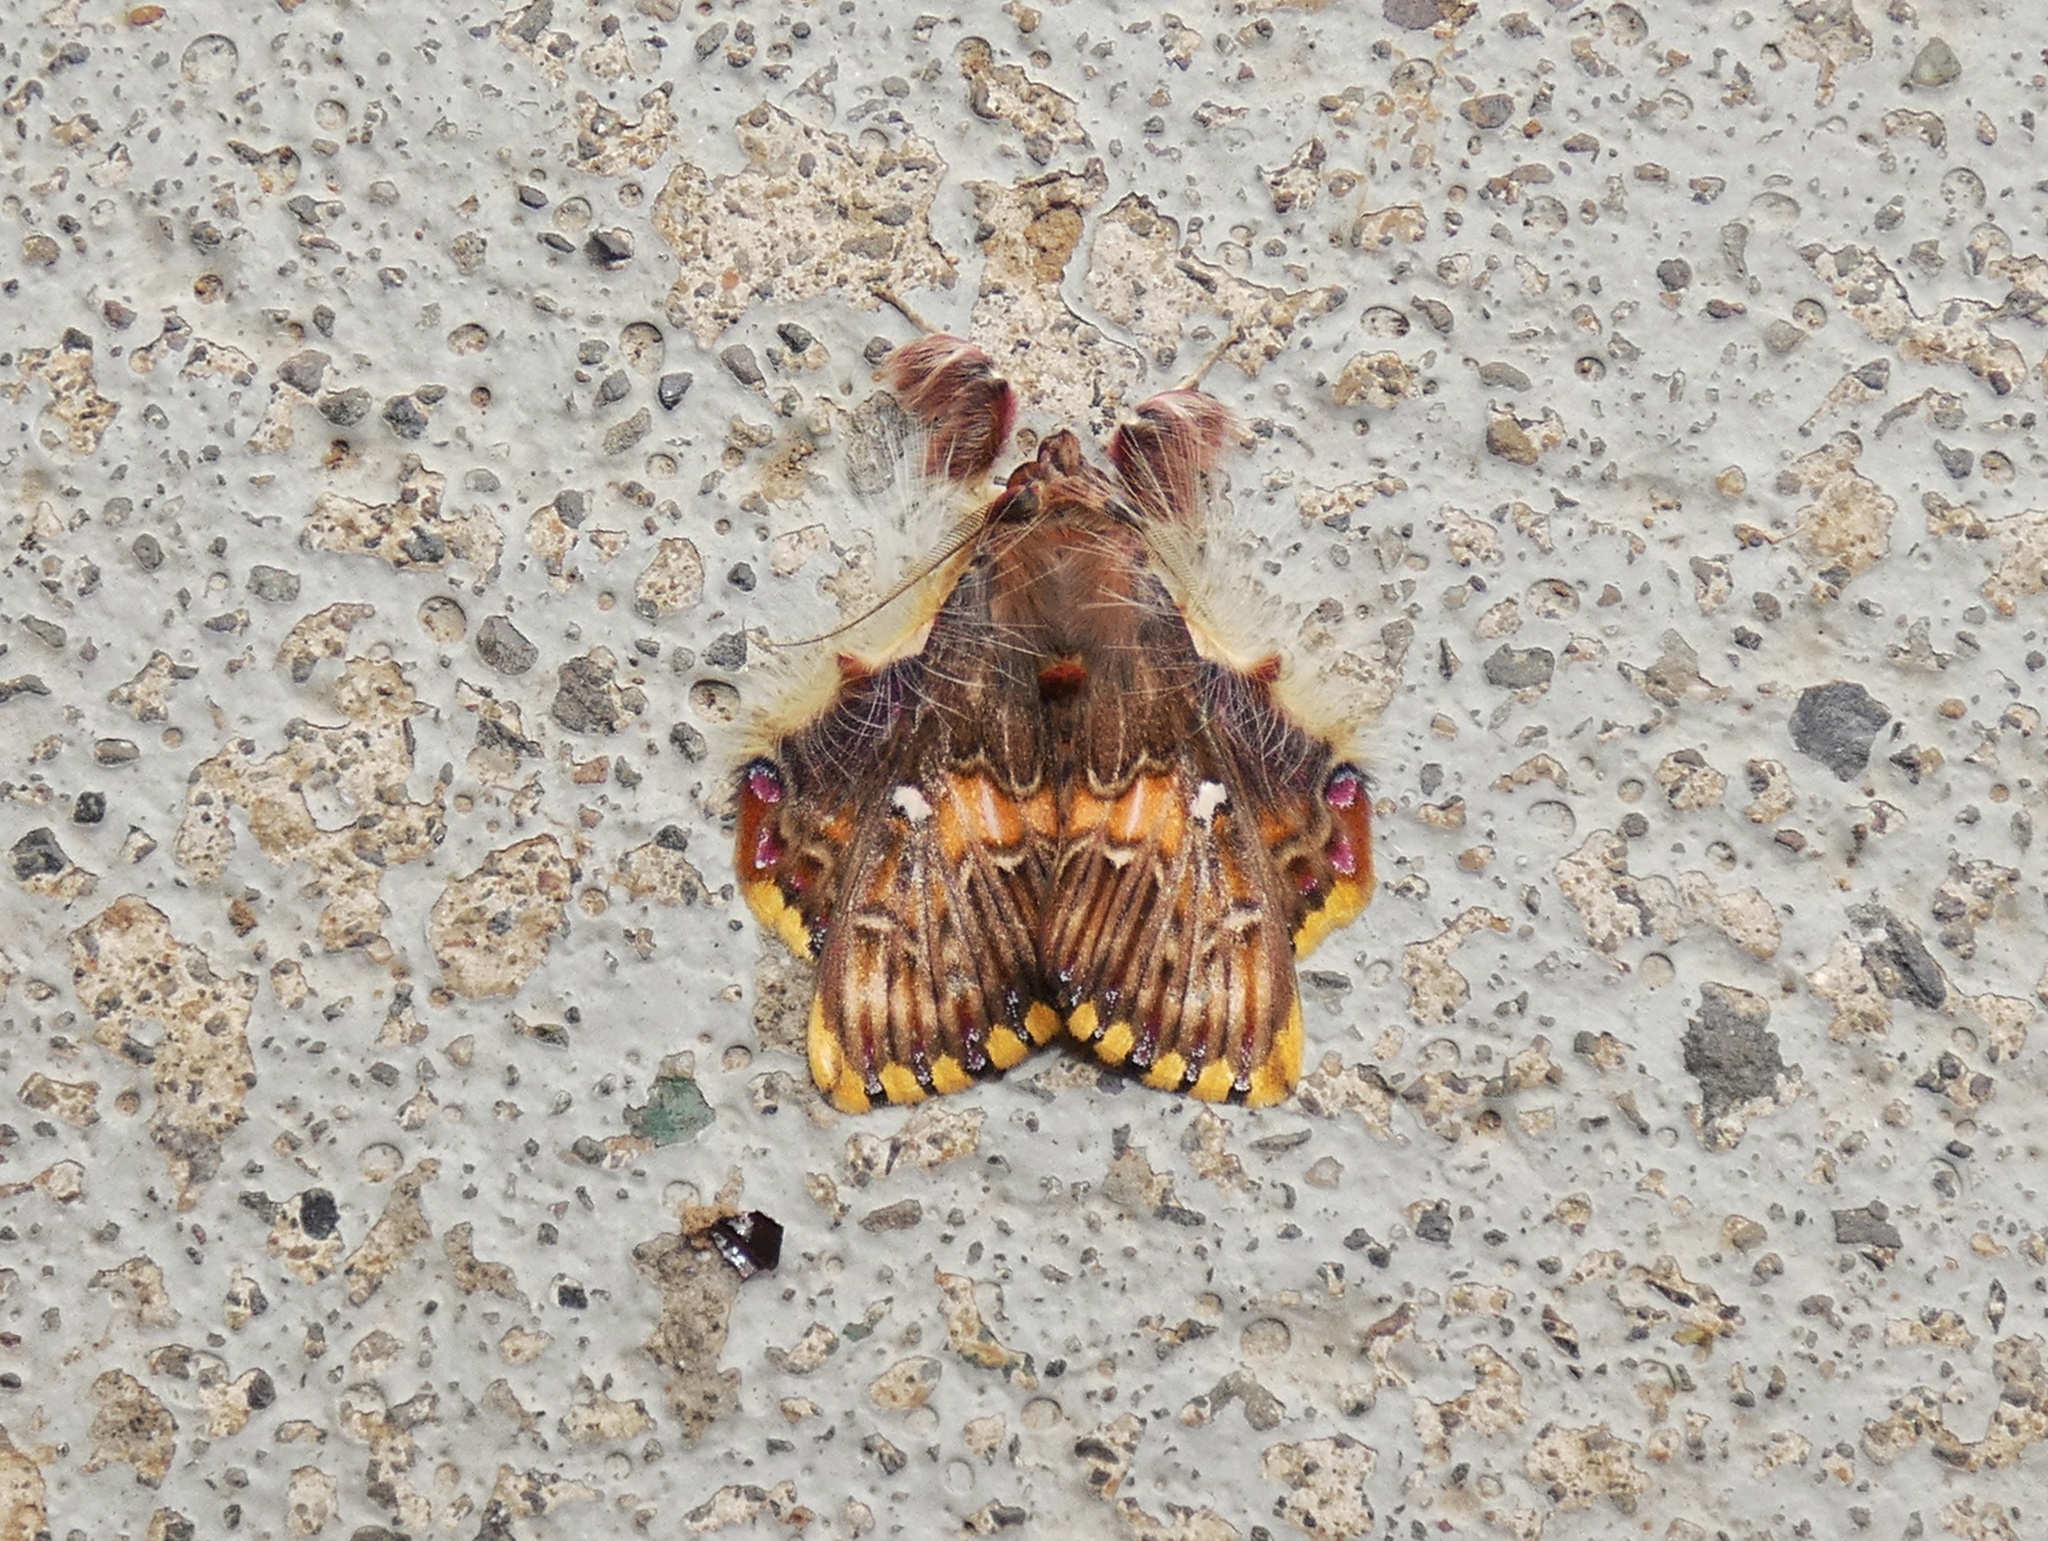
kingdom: Animalia
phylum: Arthropoda
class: Insecta
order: Lepidoptera
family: Erebidae
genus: Sosxetra
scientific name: Sosxetra grata
